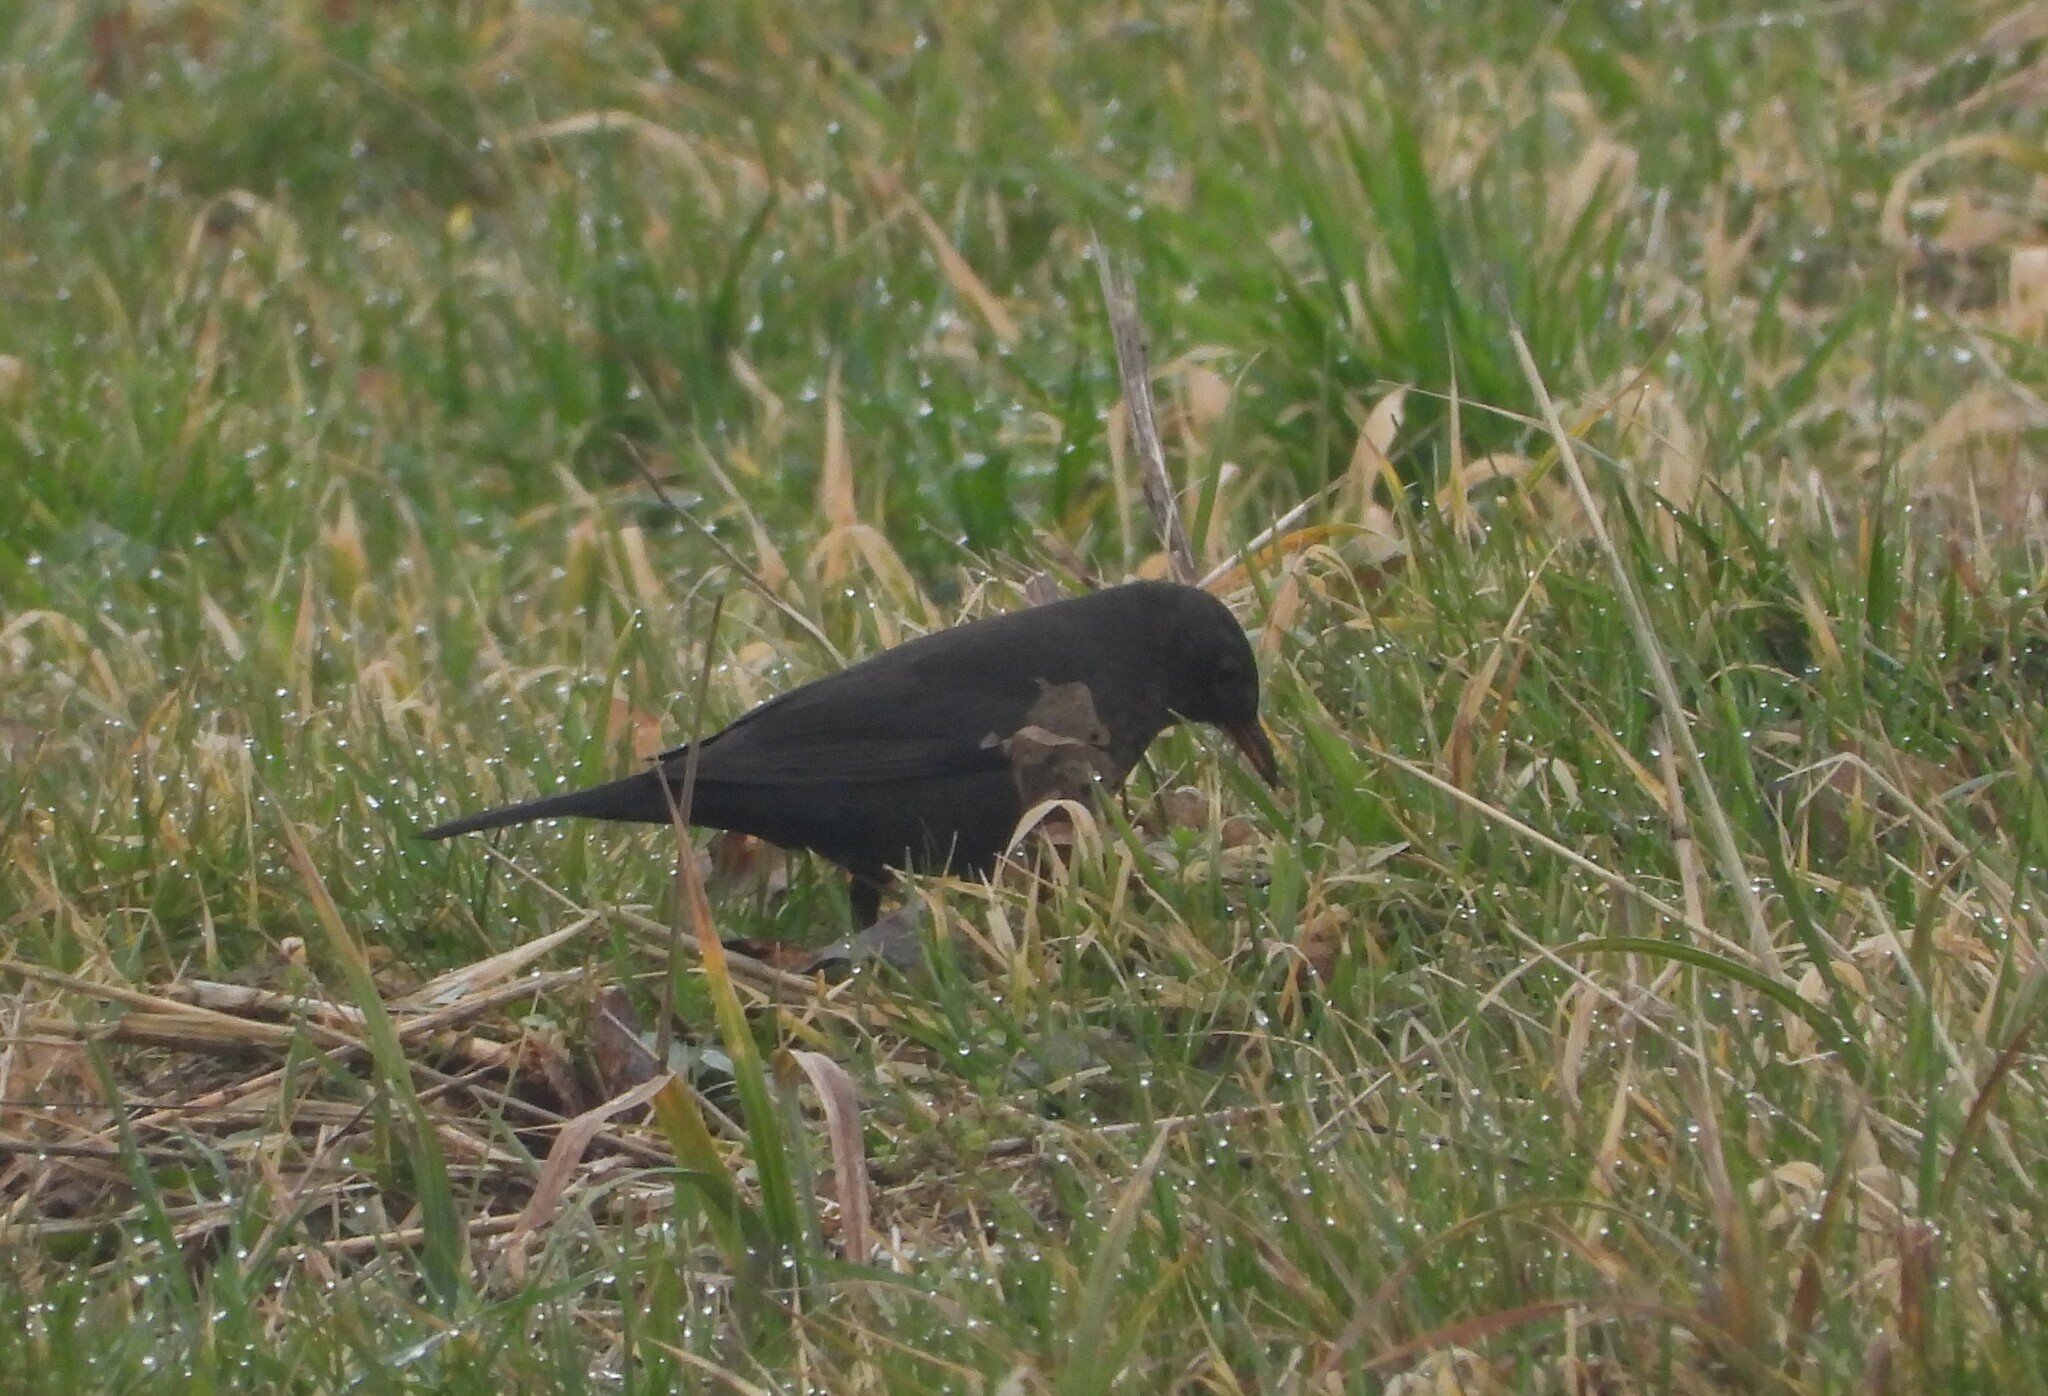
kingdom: Animalia
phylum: Chordata
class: Aves
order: Passeriformes
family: Turdidae
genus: Turdus
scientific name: Turdus merula
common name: Common blackbird
